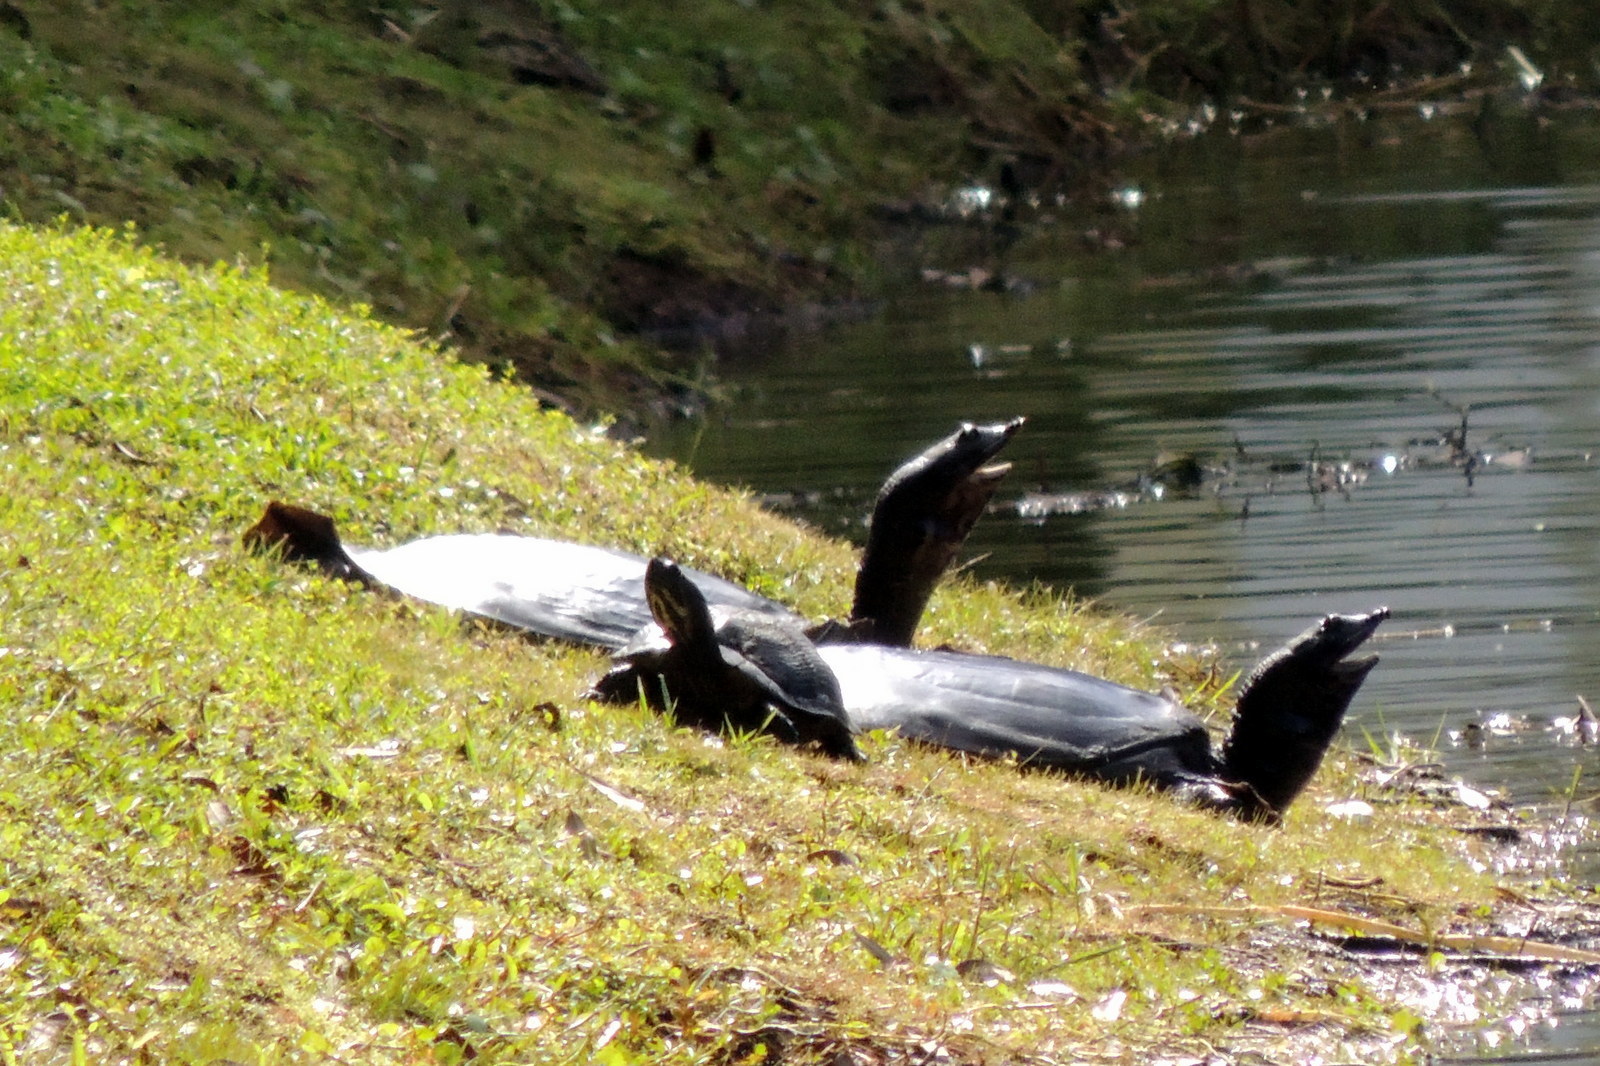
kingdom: Animalia
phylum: Chordata
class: Testudines
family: Trionychidae
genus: Apalone
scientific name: Apalone ferox
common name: Florida softshell turtle
